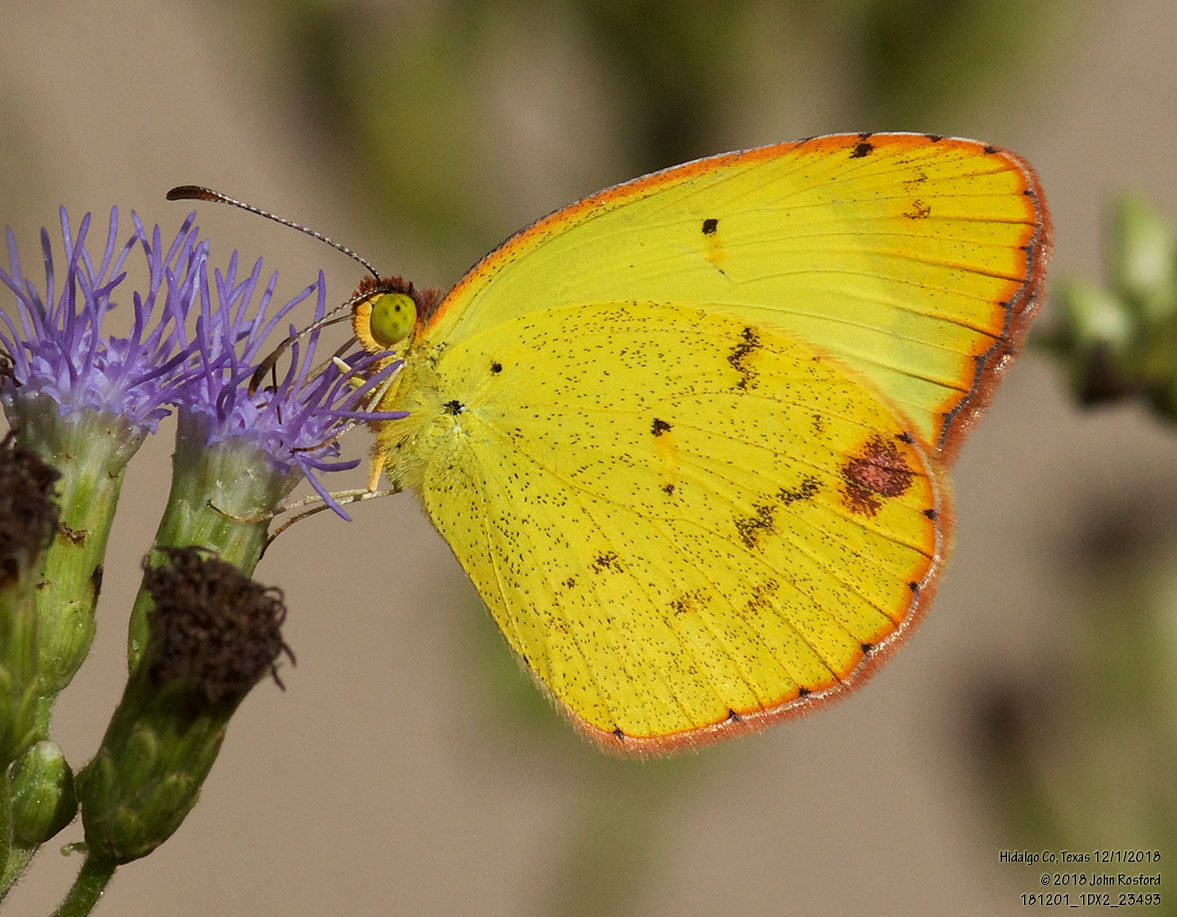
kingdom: Animalia
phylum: Arthropoda
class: Insecta
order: Lepidoptera
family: Pieridae
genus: Pyrisitia
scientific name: Pyrisitia lisa
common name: Little yellow
